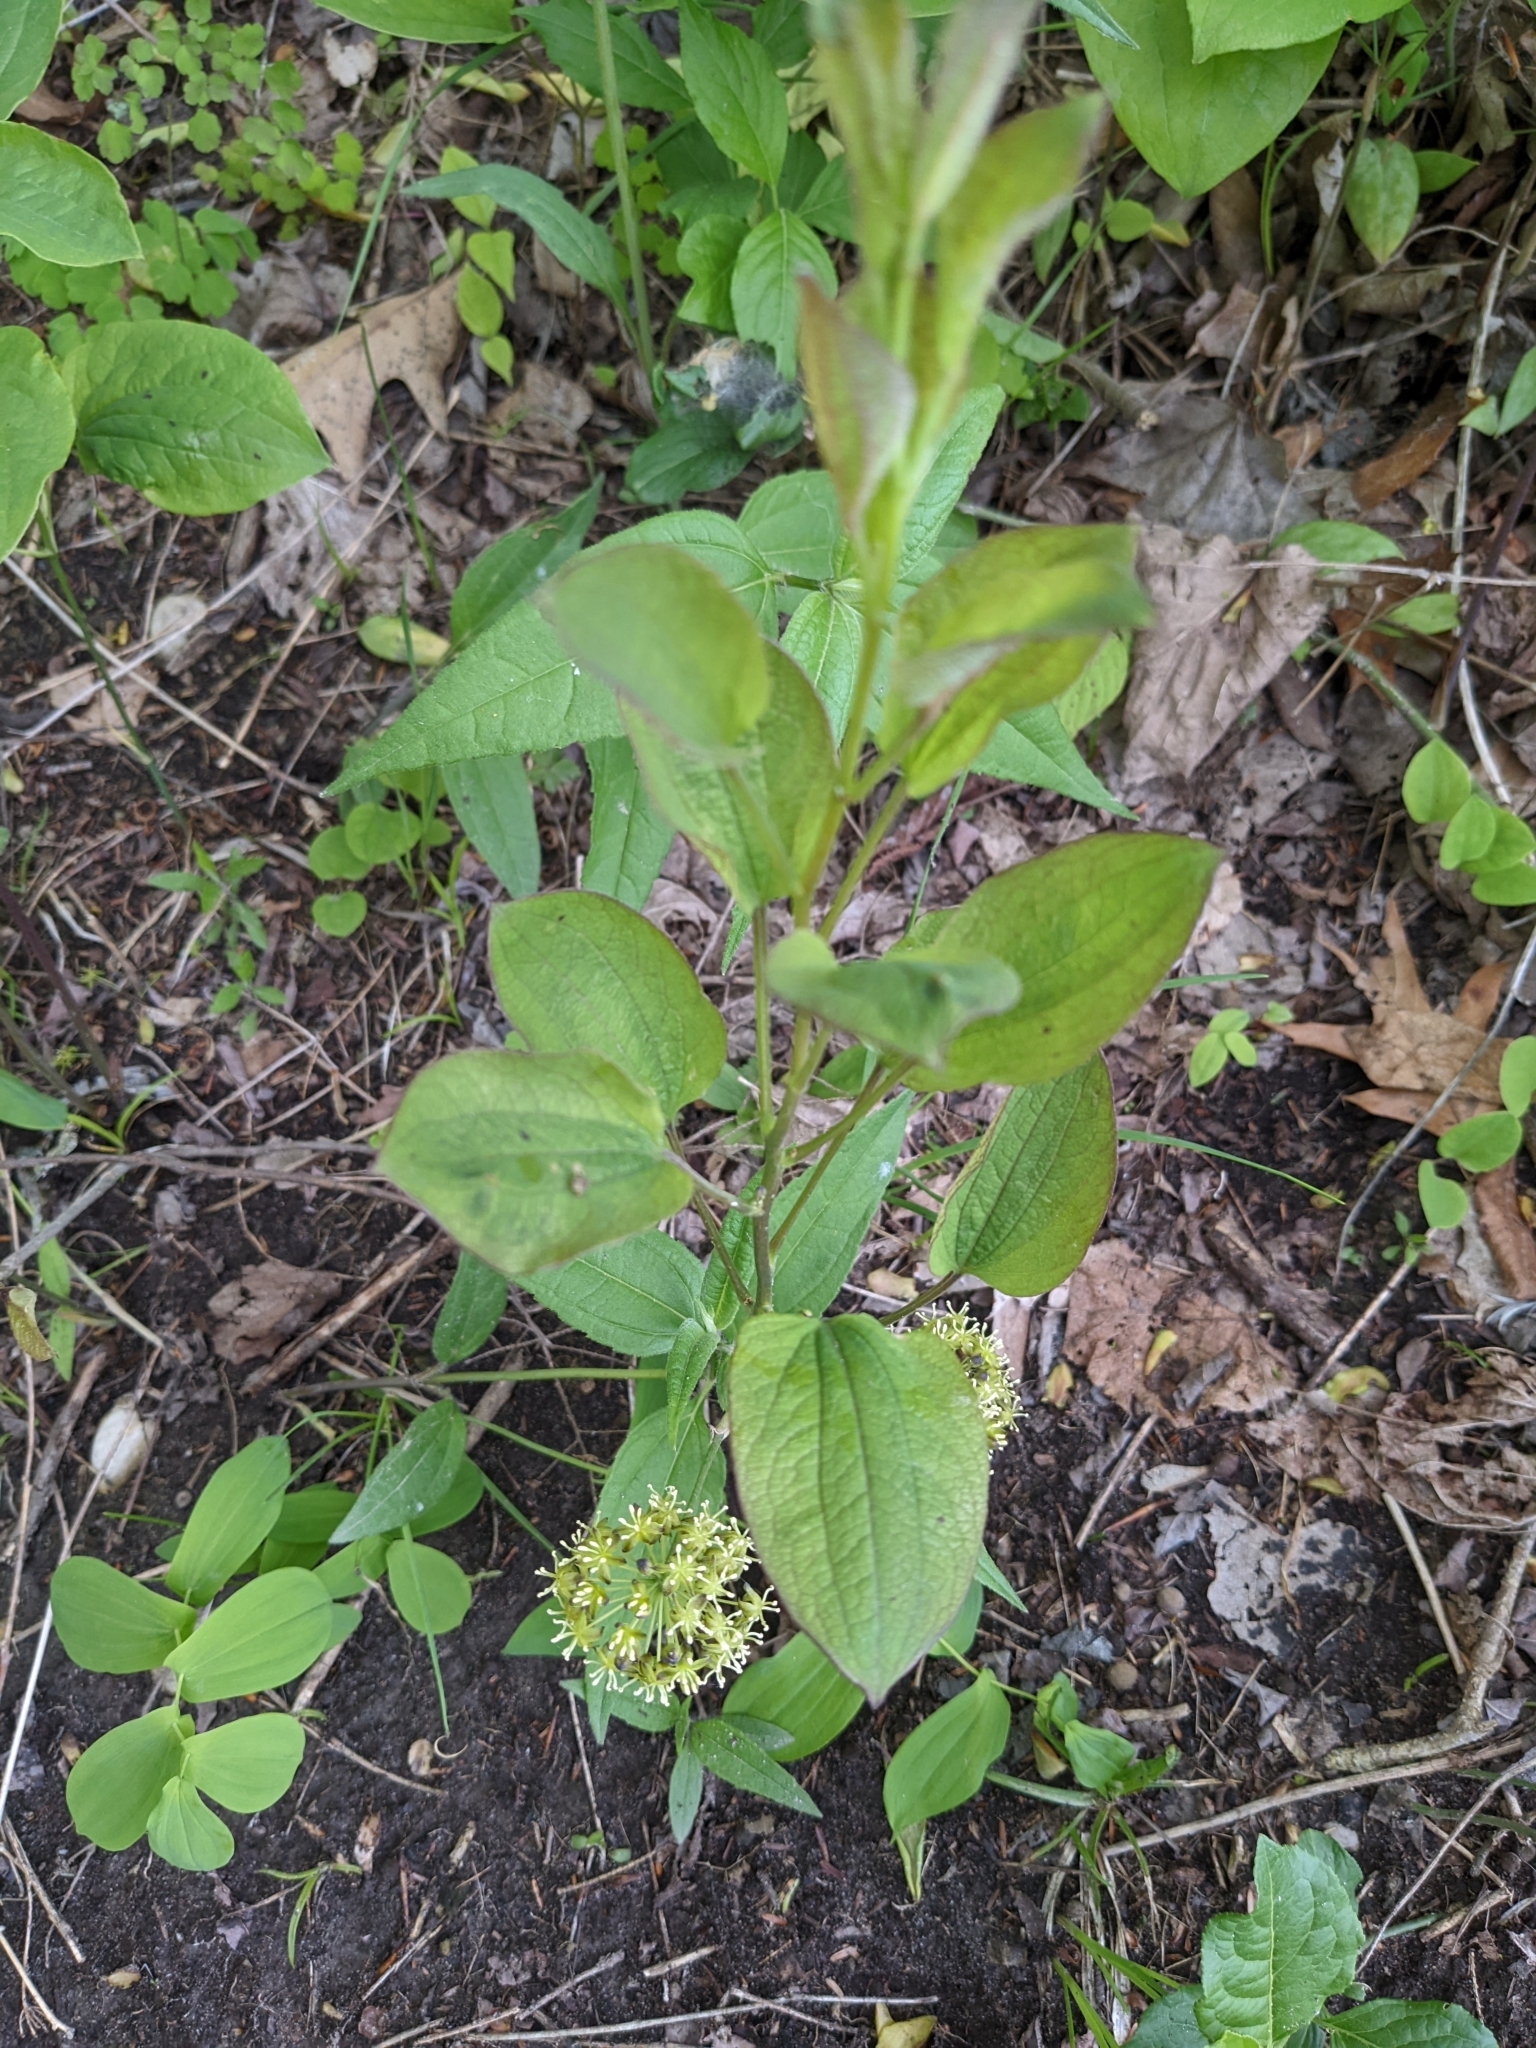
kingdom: Plantae
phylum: Tracheophyta
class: Liliopsida
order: Liliales
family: Smilacaceae
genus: Smilax
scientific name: Smilax illinoensis
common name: Illinois carrionflower
